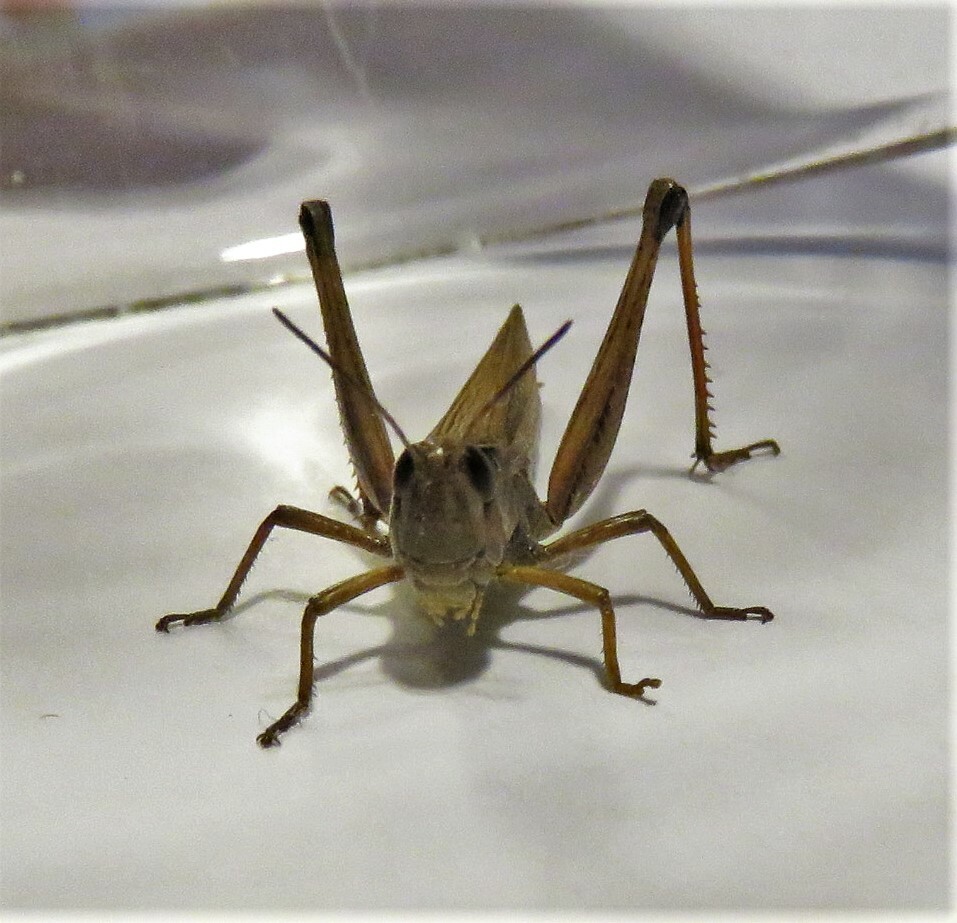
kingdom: Animalia
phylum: Arthropoda
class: Insecta
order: Orthoptera
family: Acrididae
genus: Pseudochorthippus
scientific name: Pseudochorthippus curtipennis
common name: Marsh meadow grasshopper
